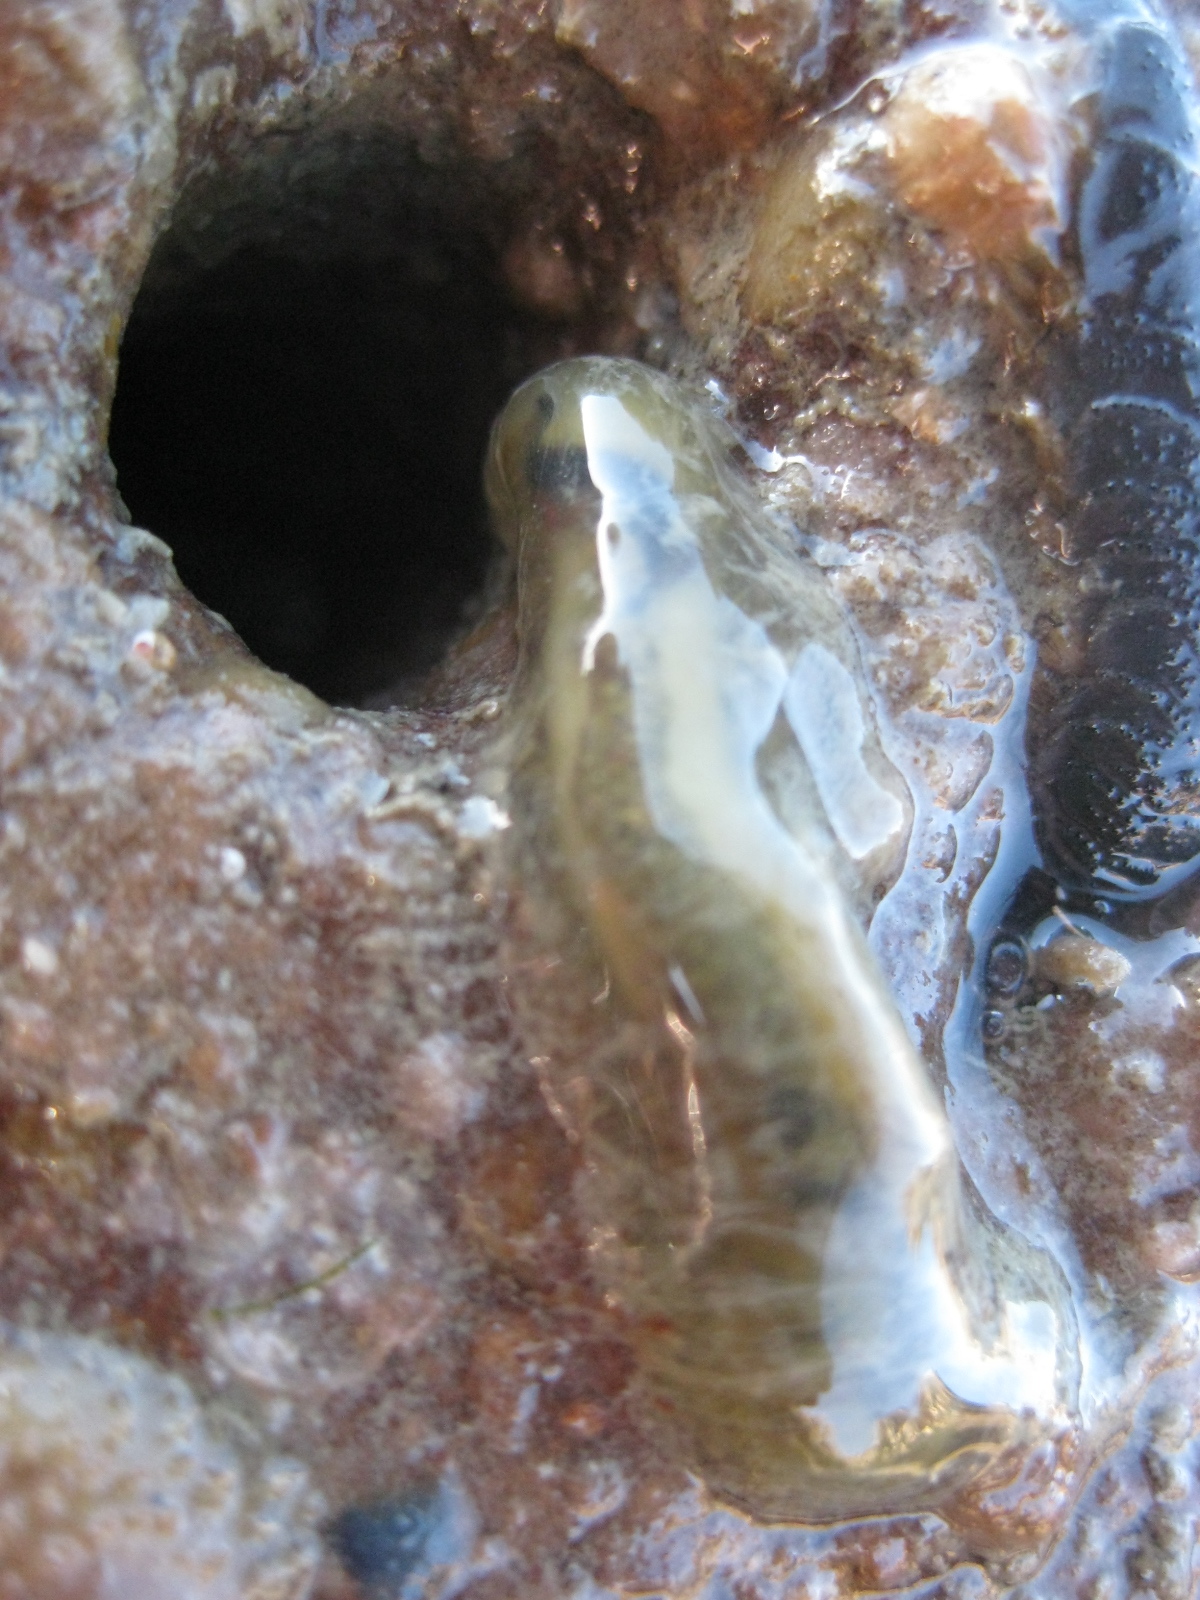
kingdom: Animalia
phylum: Annelida
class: Polychaeta
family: Flabelligeridae
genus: Flabelligera
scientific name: Flabelligera bicolor
